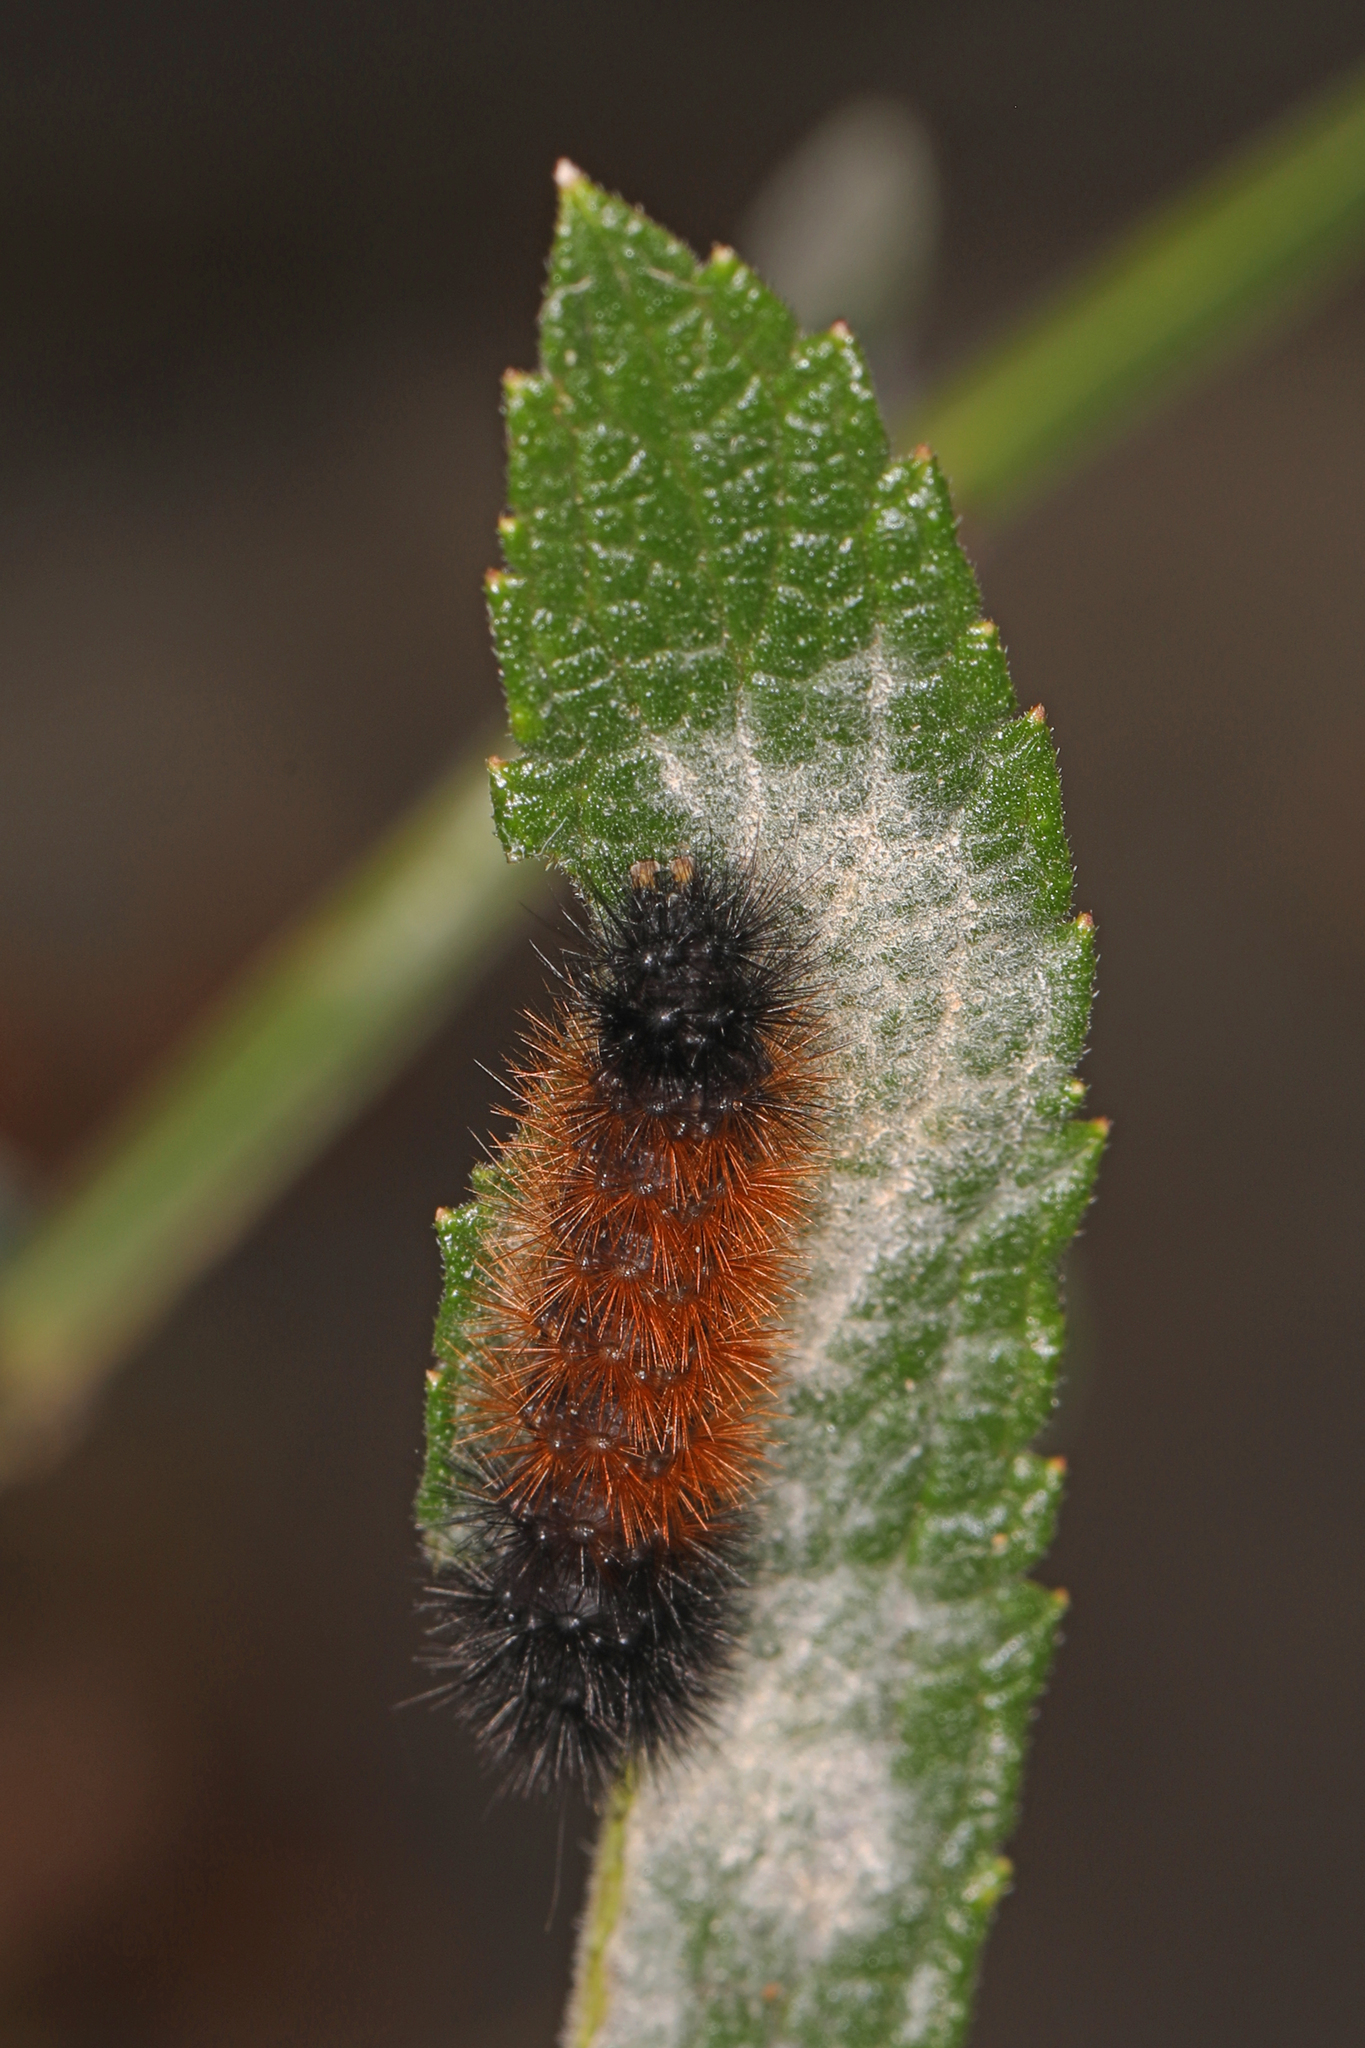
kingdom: Animalia
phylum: Arthropoda
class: Insecta
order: Lepidoptera
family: Erebidae
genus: Pyrrharctia
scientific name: Pyrrharctia isabella
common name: Isabella tiger moth
